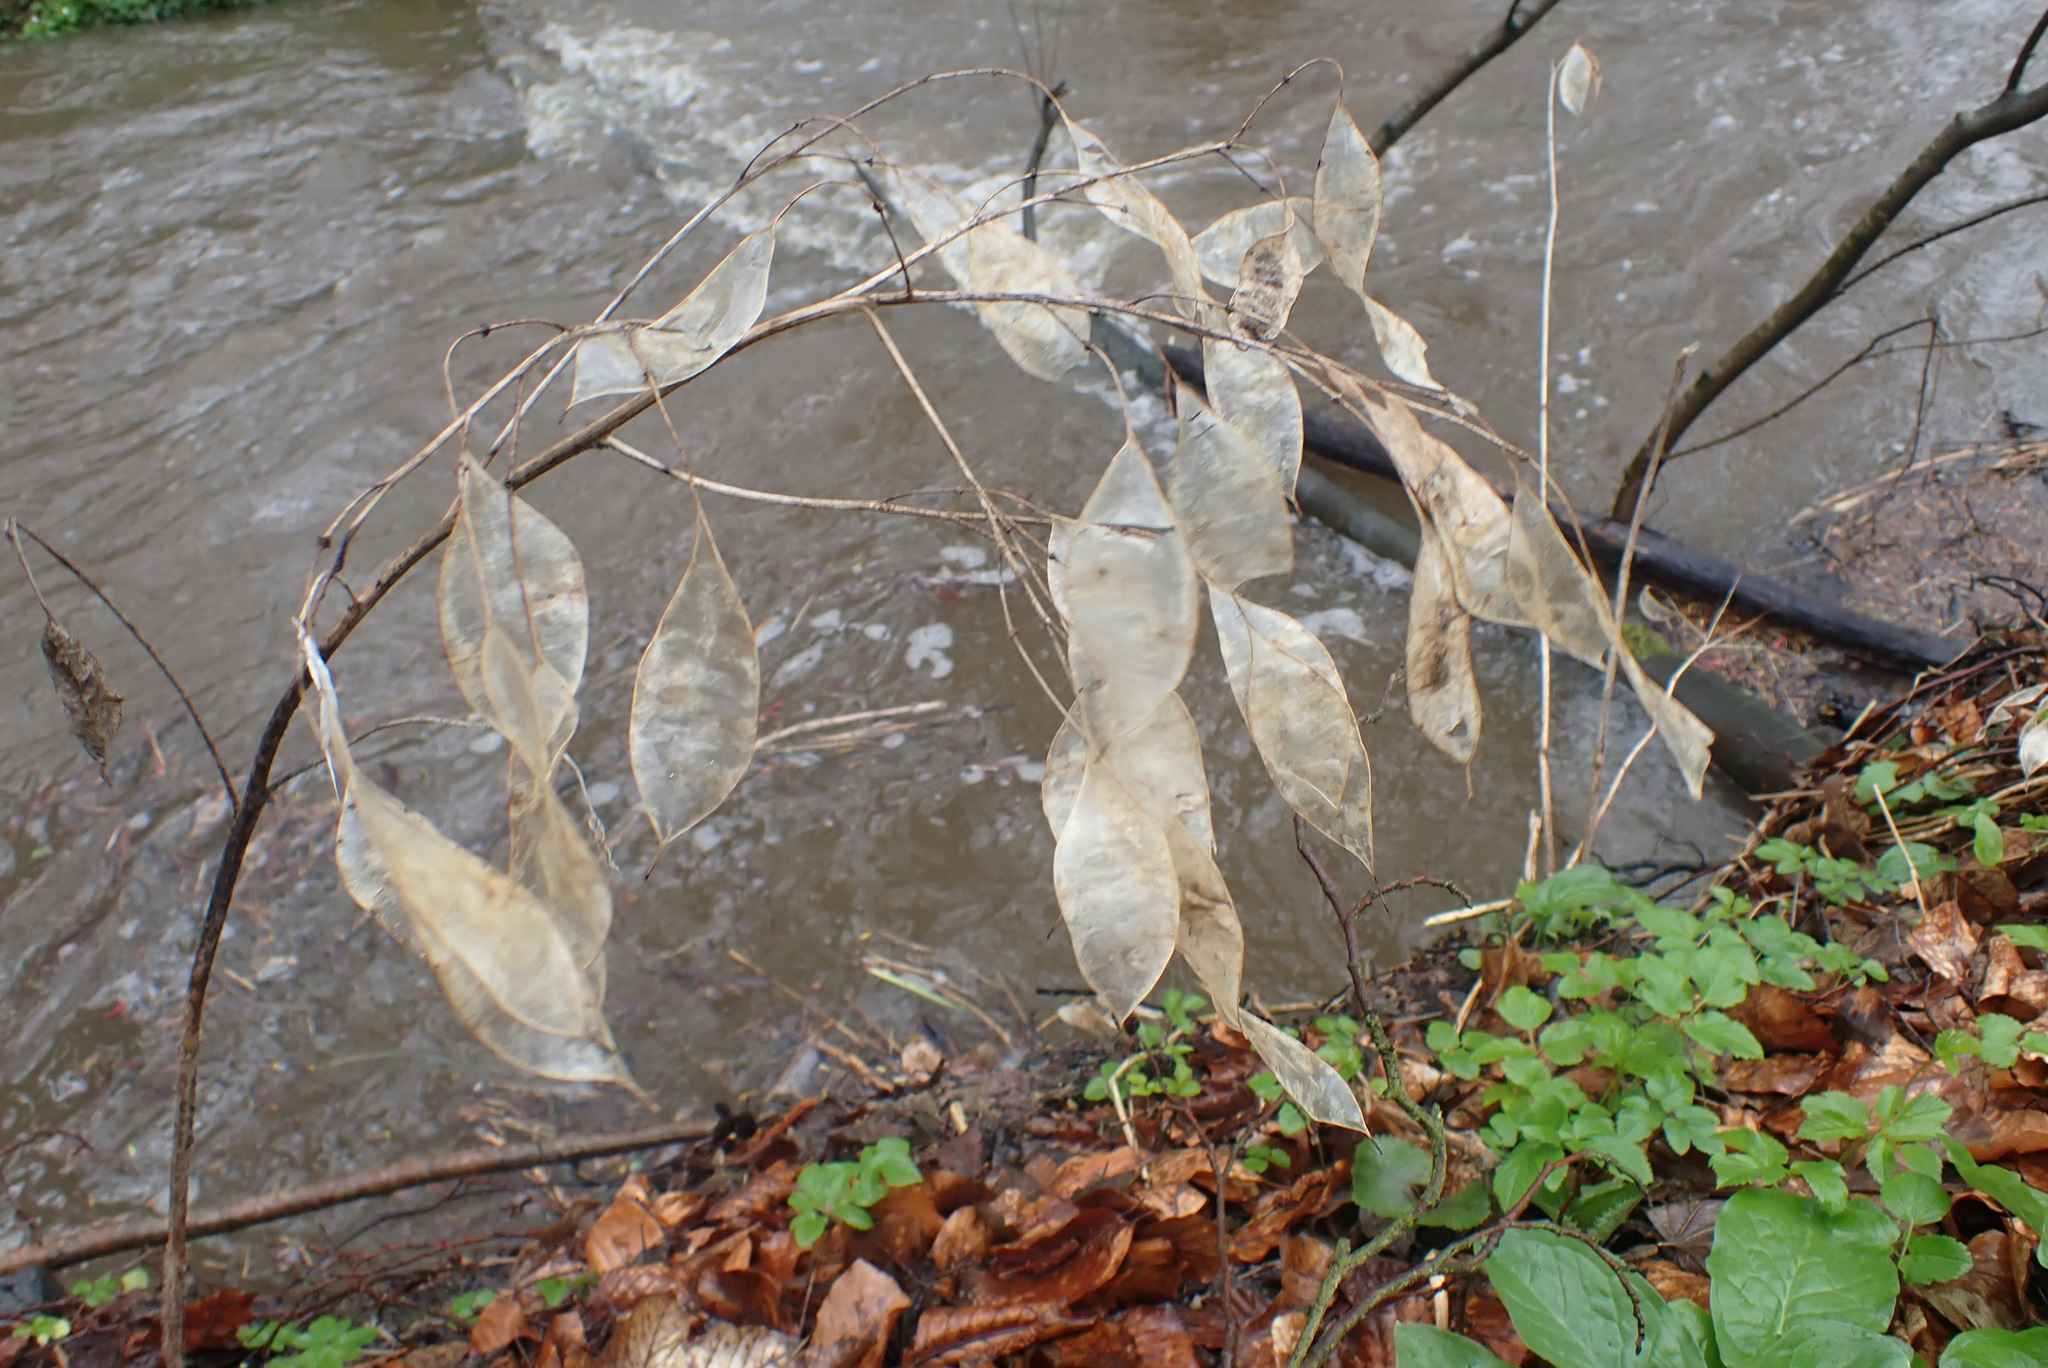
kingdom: Plantae
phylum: Tracheophyta
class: Magnoliopsida
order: Brassicales
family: Brassicaceae
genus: Lunaria
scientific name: Lunaria rediviva
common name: Perennial honesty
